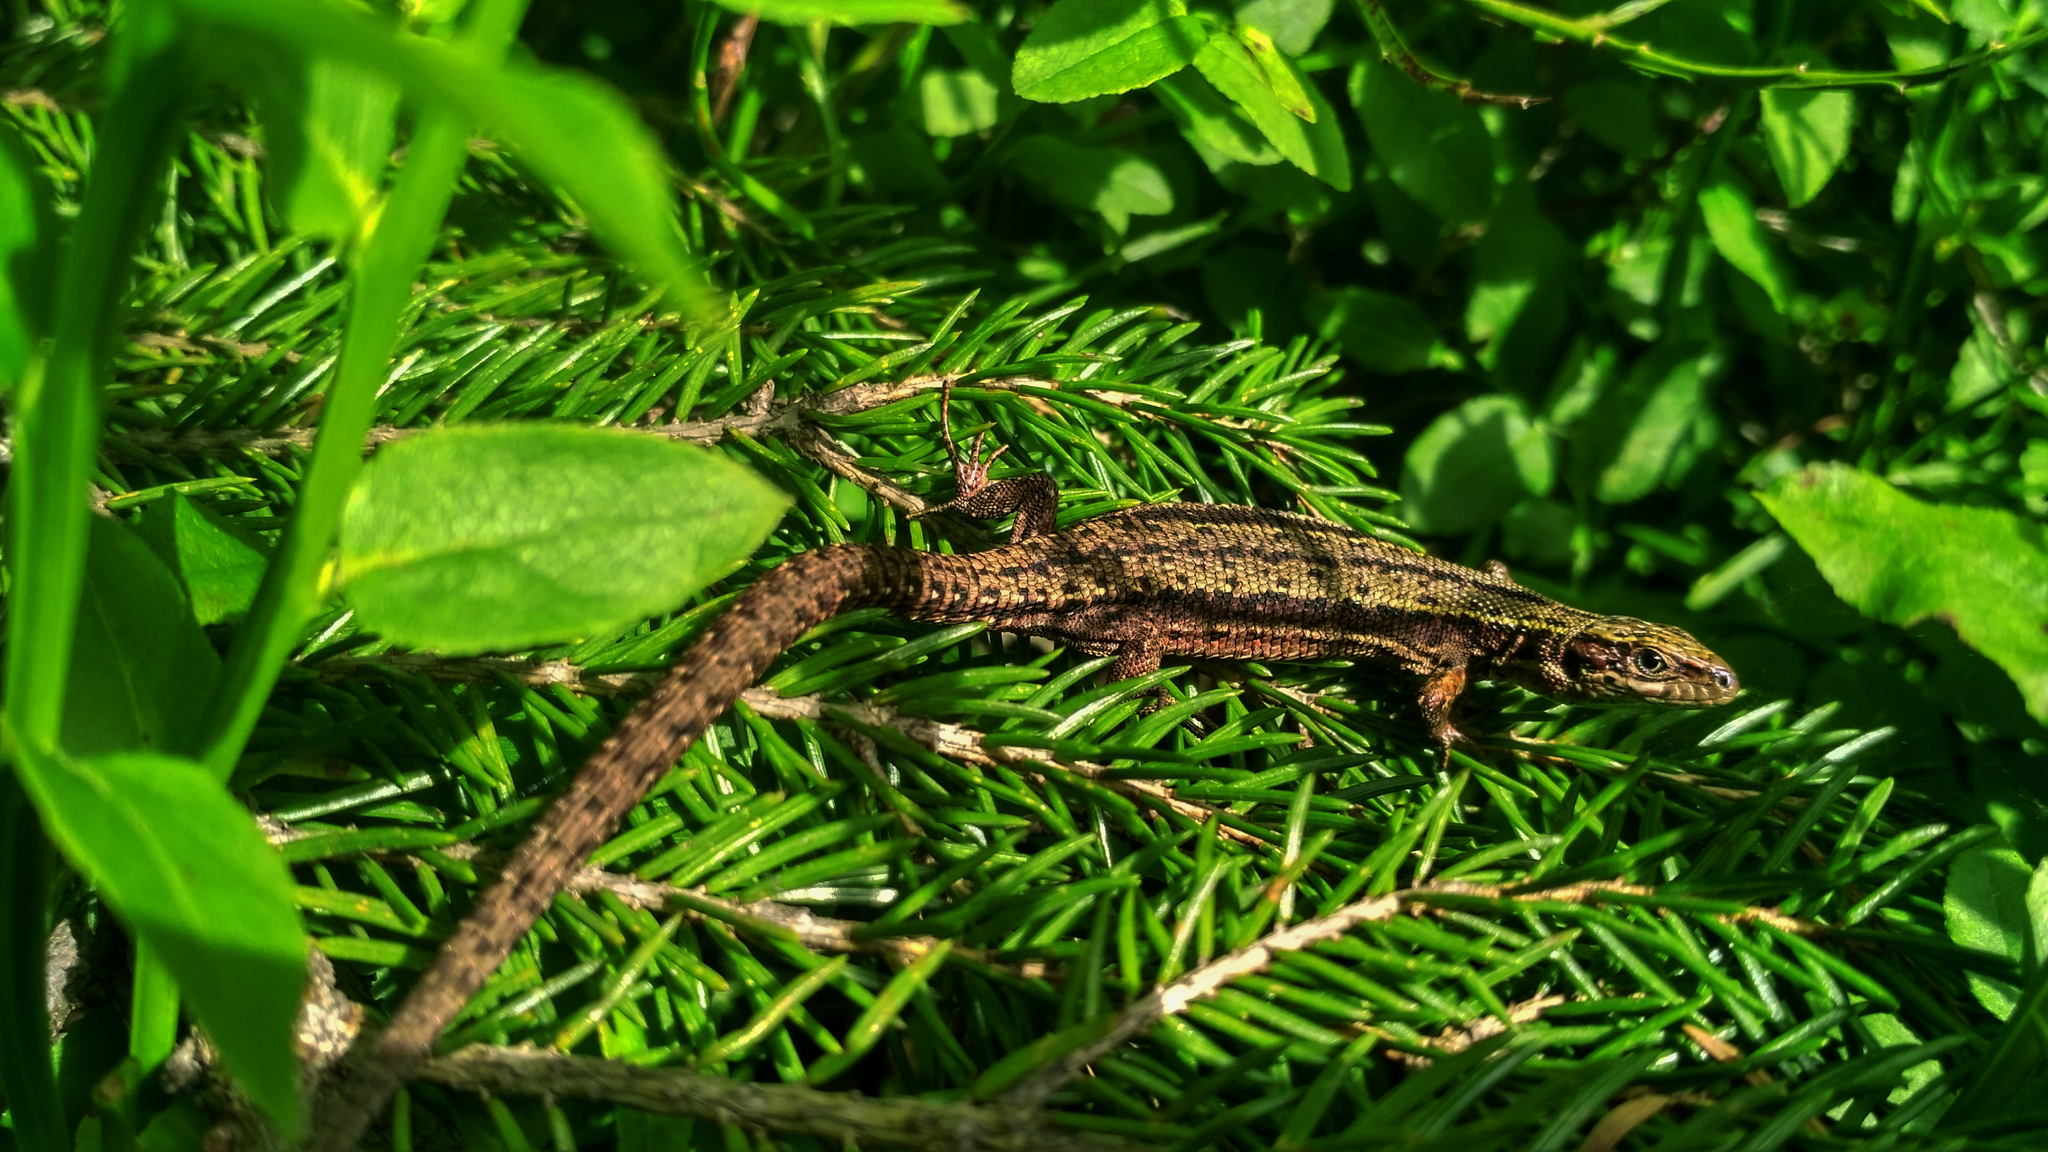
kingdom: Animalia
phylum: Chordata
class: Squamata
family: Lacertidae
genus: Zootoca
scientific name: Zootoca vivipara
